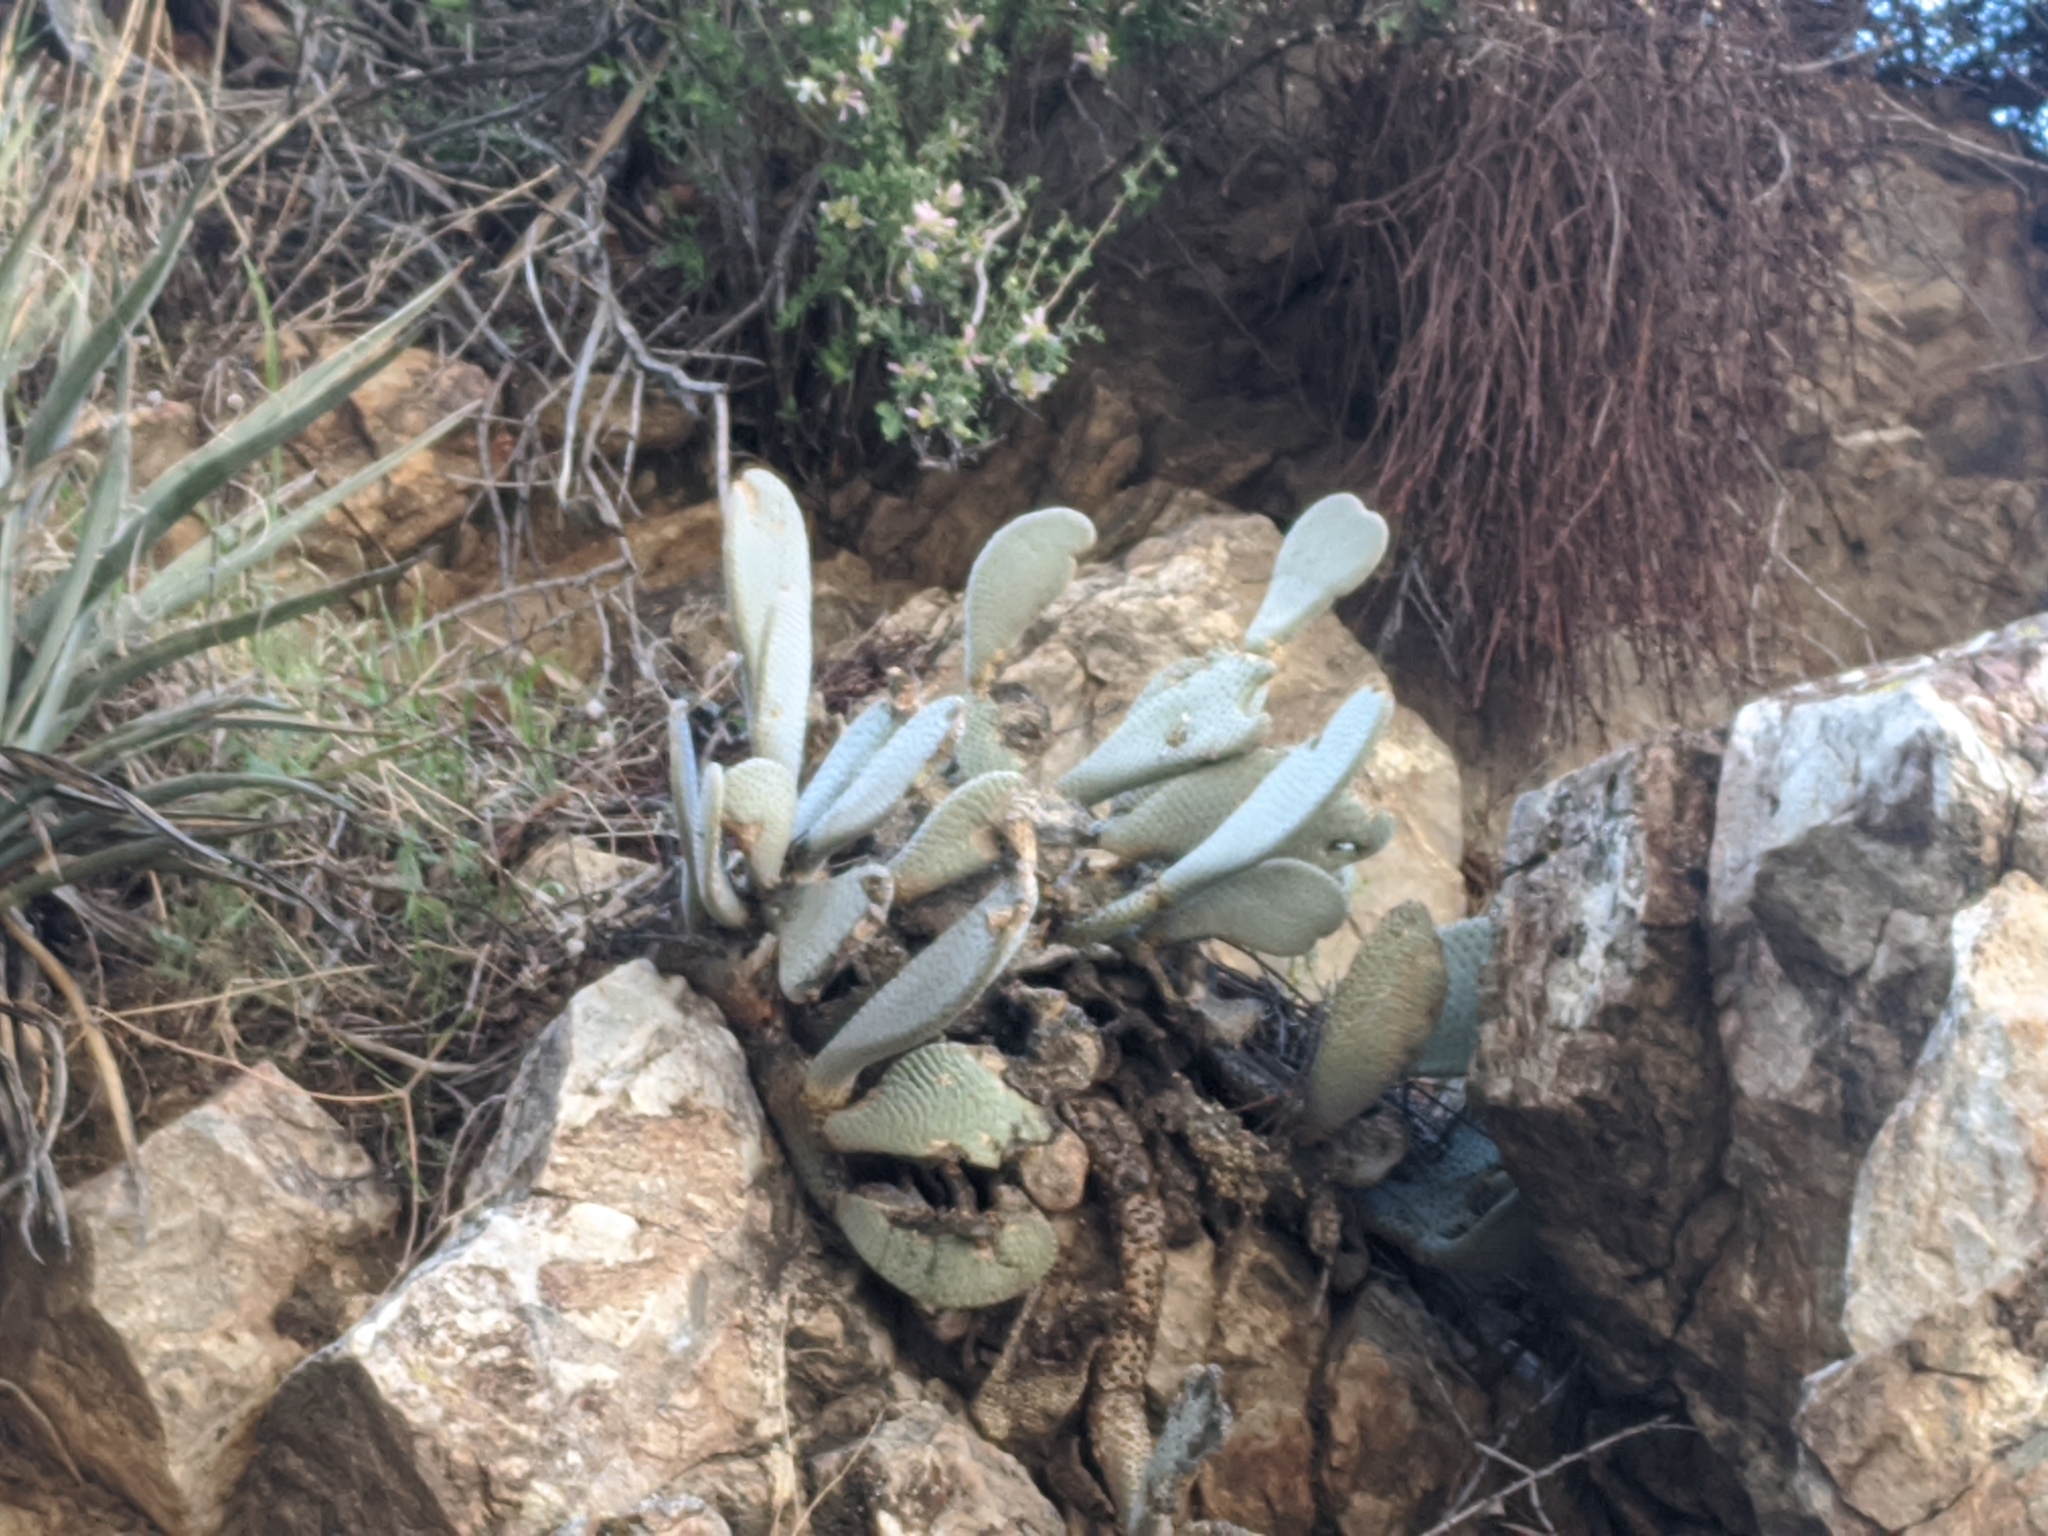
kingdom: Plantae
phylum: Tracheophyta
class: Magnoliopsida
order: Caryophyllales
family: Cactaceae
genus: Opuntia
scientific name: Opuntia basilaris
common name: Beavertail prickly-pear
